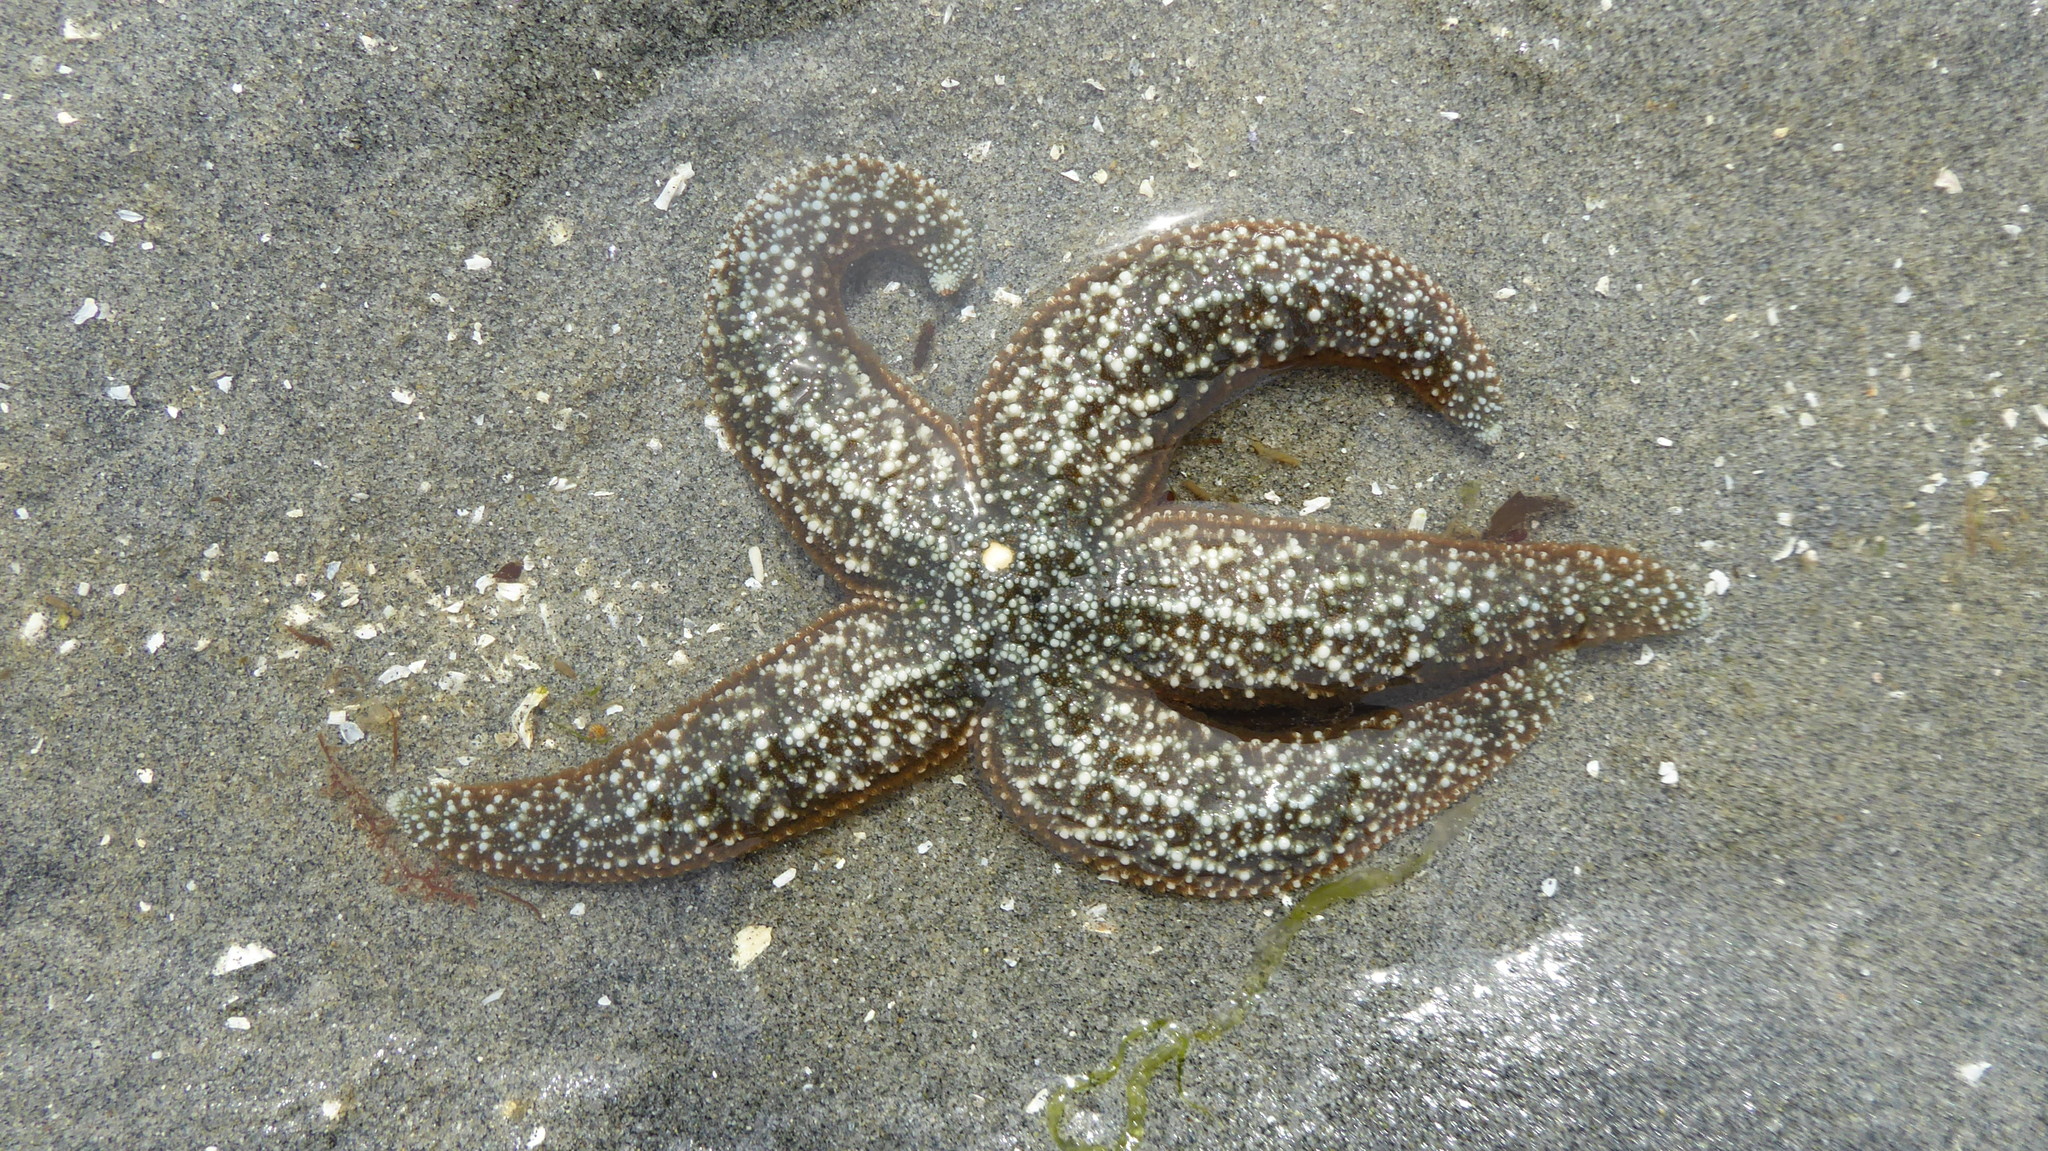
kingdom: Animalia
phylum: Echinodermata
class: Asteroidea
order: Forcipulatida
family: Asteriidae
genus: Evasterias
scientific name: Evasterias troschelii
